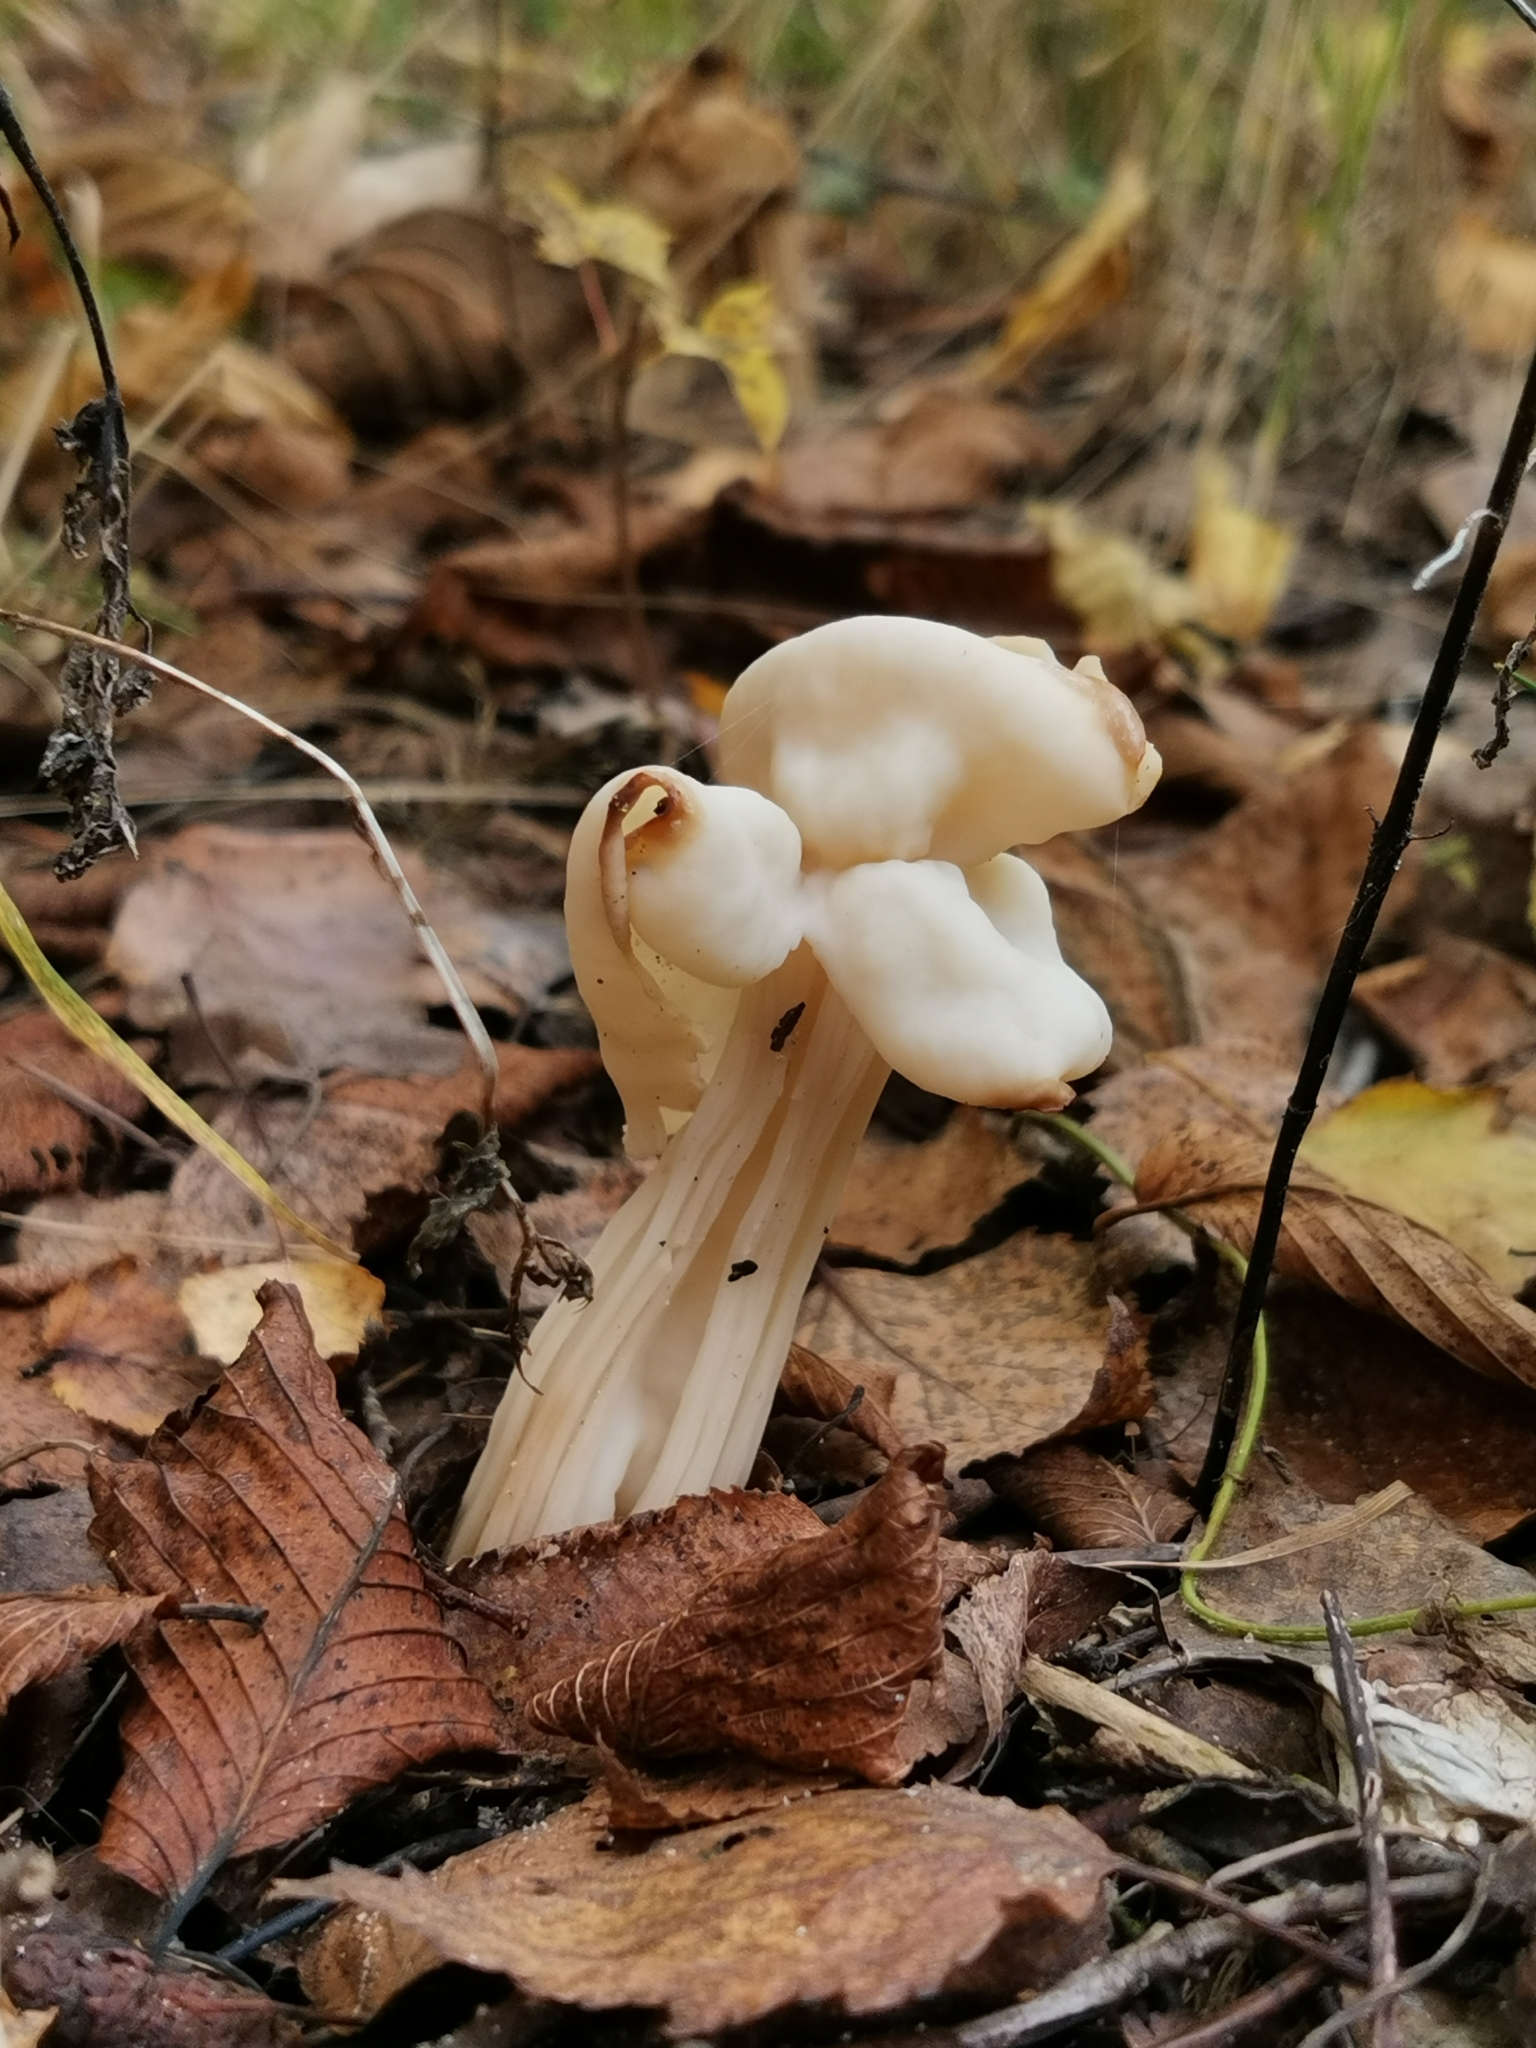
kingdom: Fungi
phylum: Ascomycota
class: Pezizomycetes
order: Pezizales
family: Helvellaceae
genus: Helvella
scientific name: Helvella crispa
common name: White saddle
